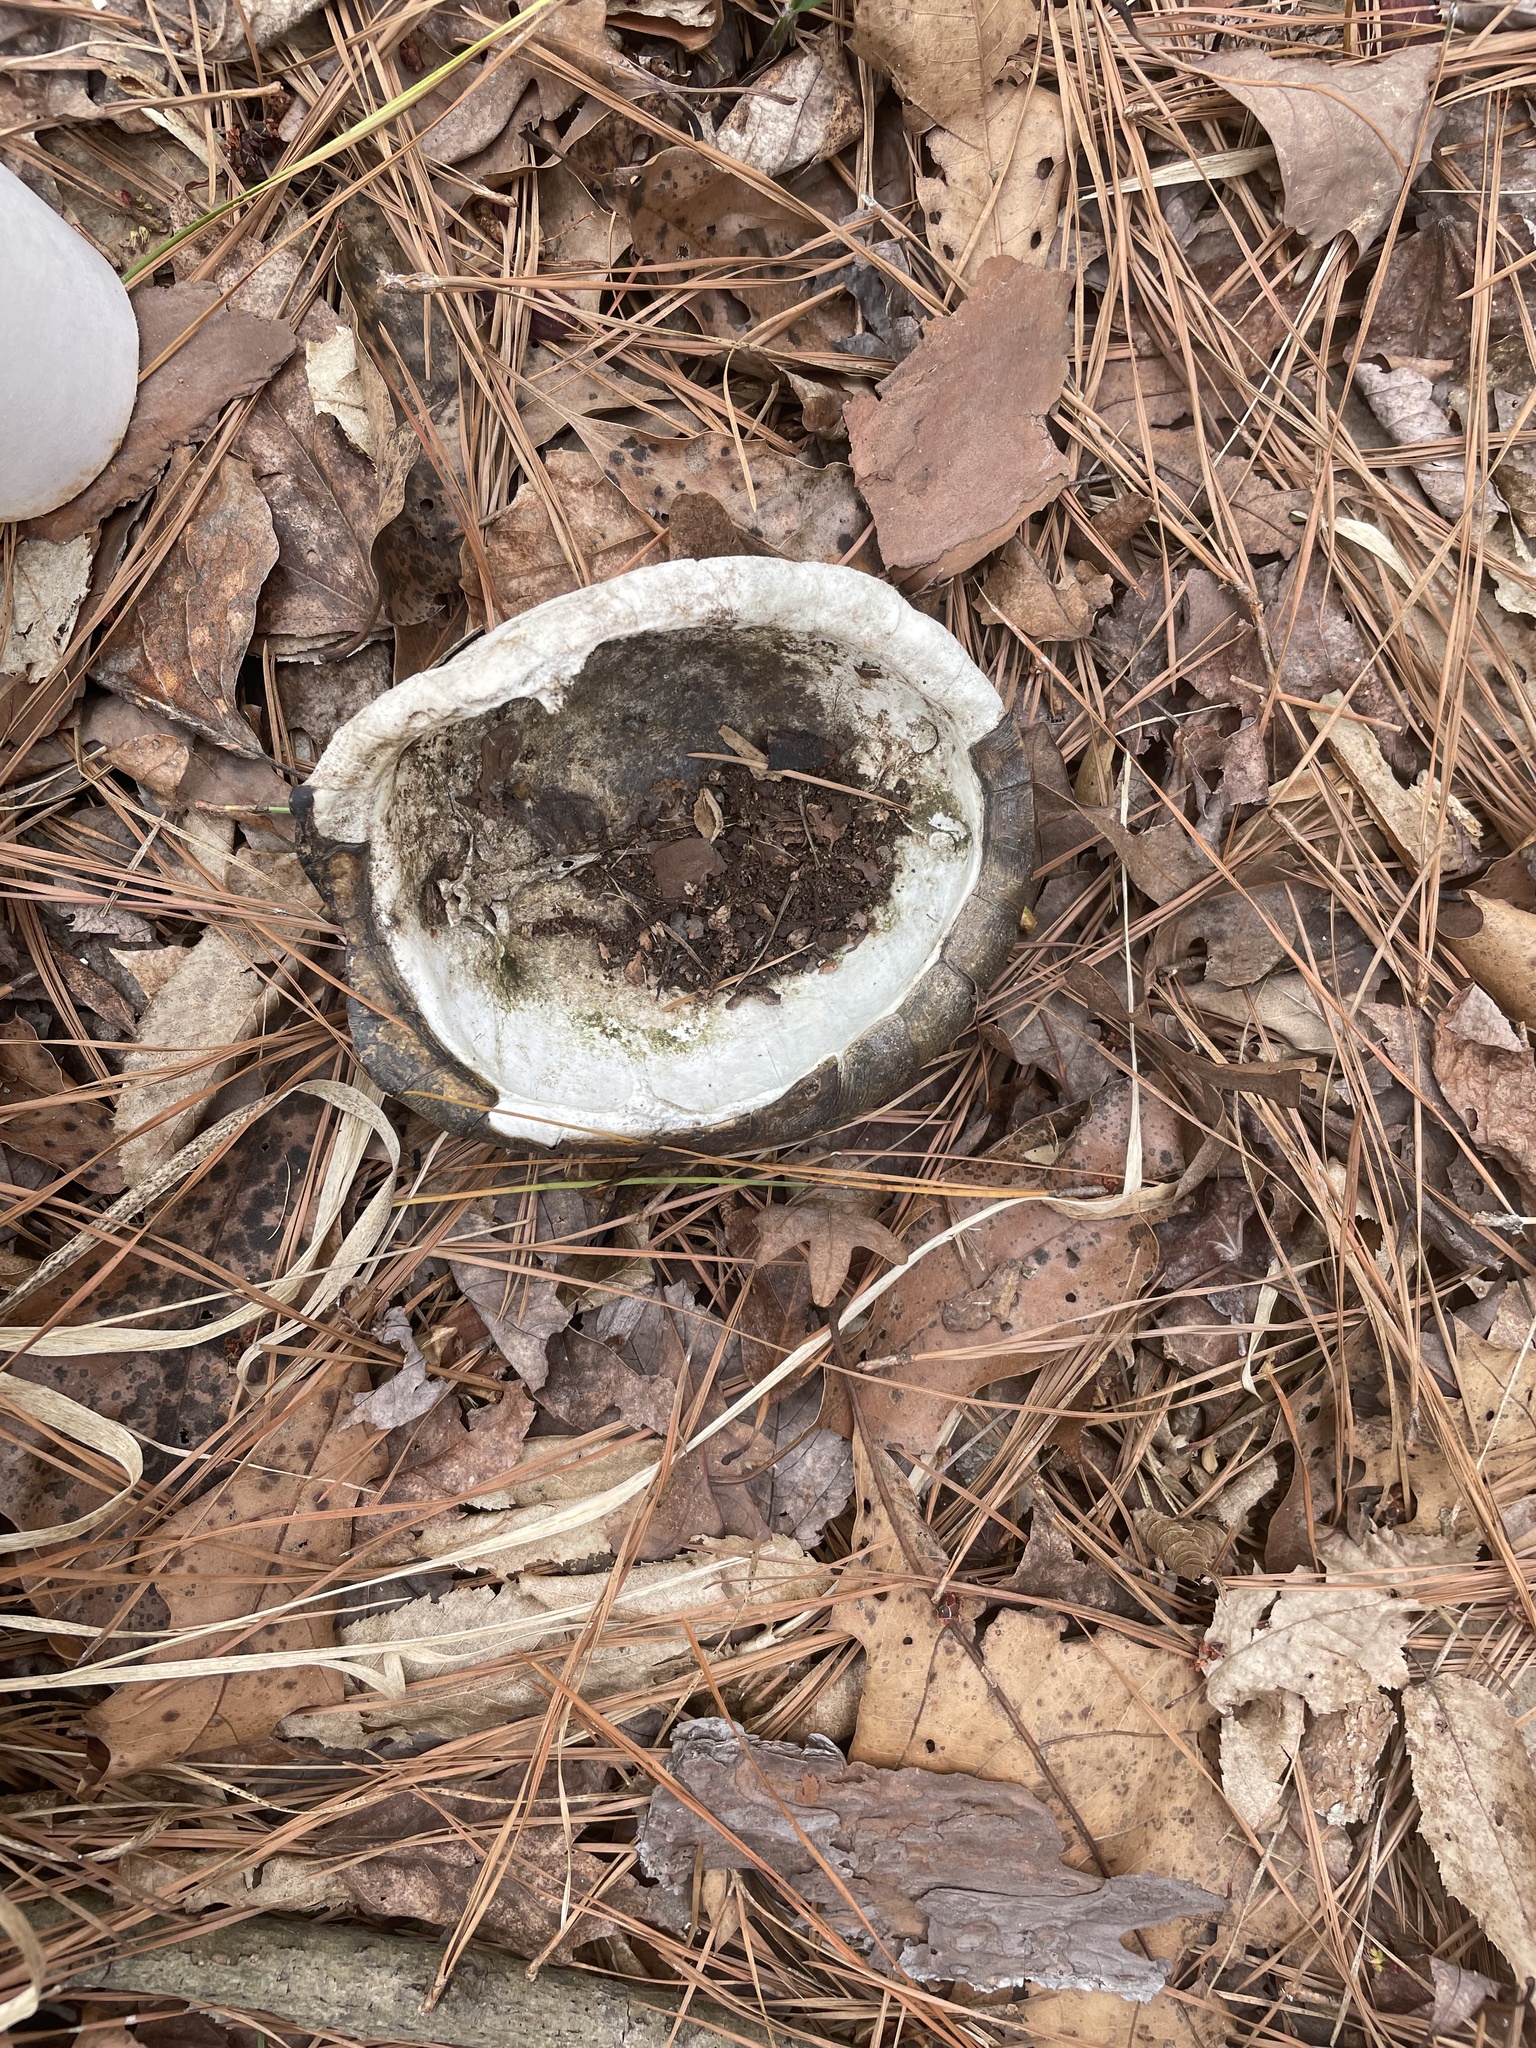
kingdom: Animalia
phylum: Chordata
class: Testudines
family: Emydidae
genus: Terrapene
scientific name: Terrapene carolina
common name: Common box turtle
